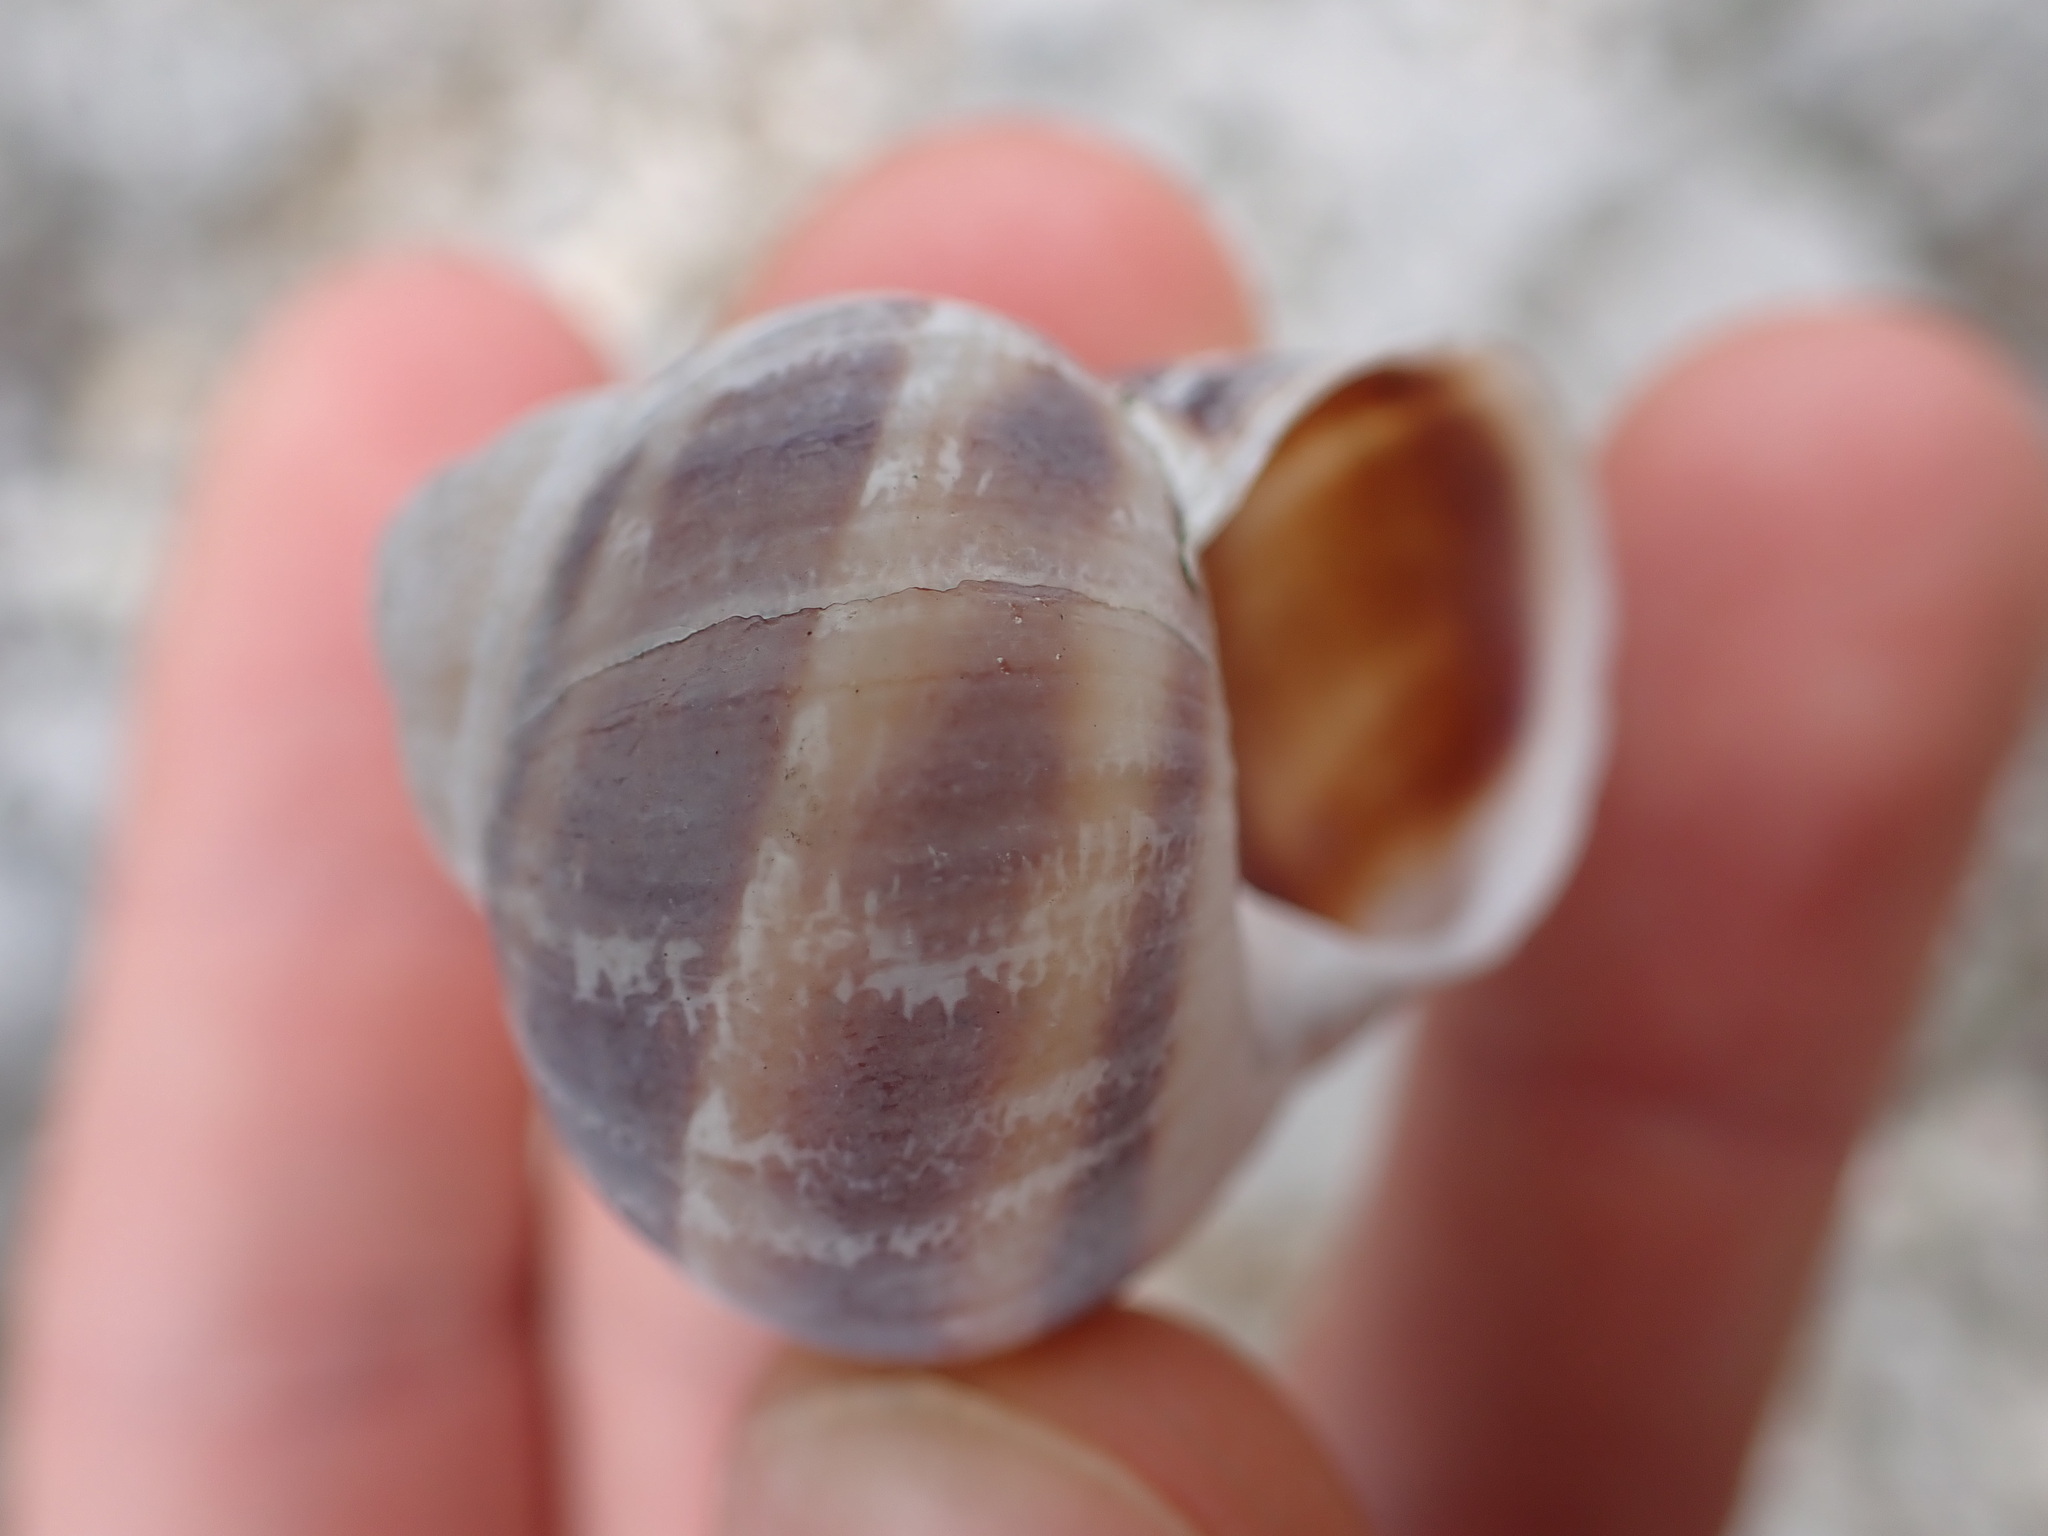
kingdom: Animalia
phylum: Mollusca
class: Gastropoda
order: Stylommatophora
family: Helicidae
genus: Cornu
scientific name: Cornu aspersum
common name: Brown garden snail
